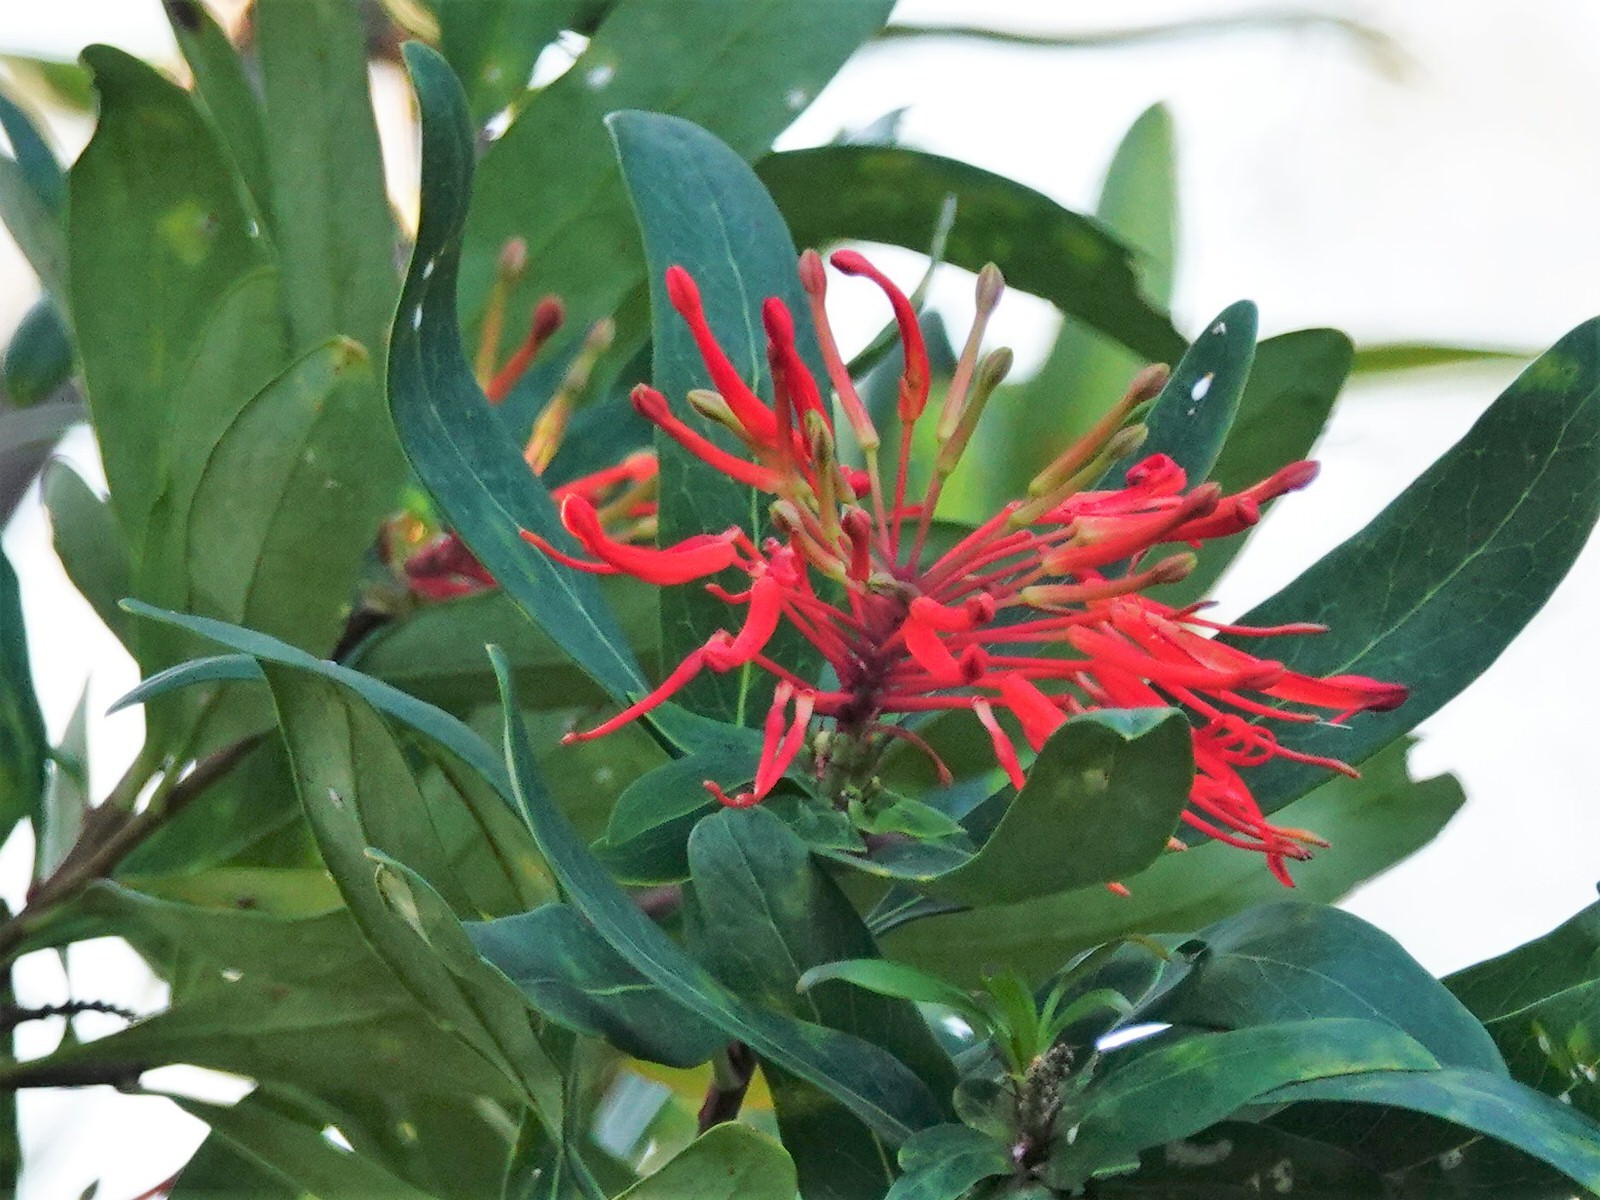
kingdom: Plantae
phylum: Tracheophyta
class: Magnoliopsida
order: Proteales
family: Proteaceae
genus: Embothrium
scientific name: Embothrium coccineum
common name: Chilean firebush
